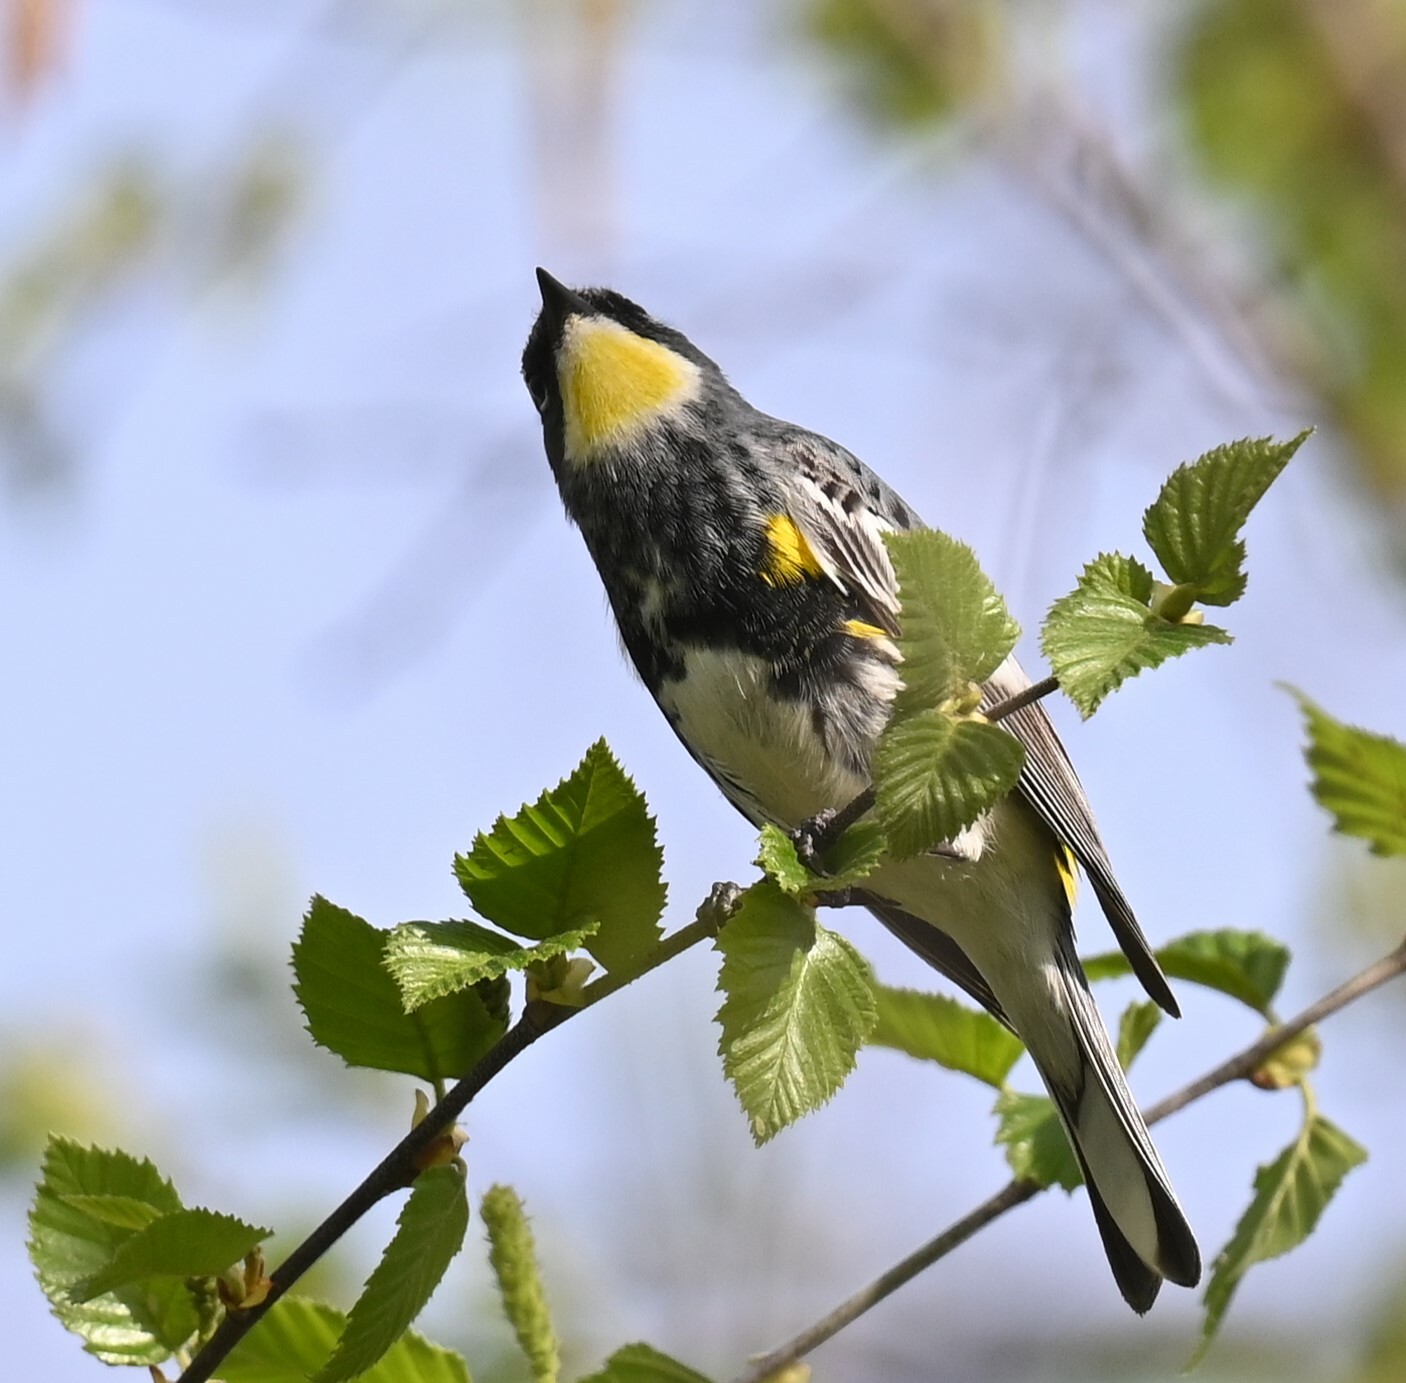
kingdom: Animalia
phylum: Chordata
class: Aves
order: Passeriformes
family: Parulidae
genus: Setophaga
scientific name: Setophaga
